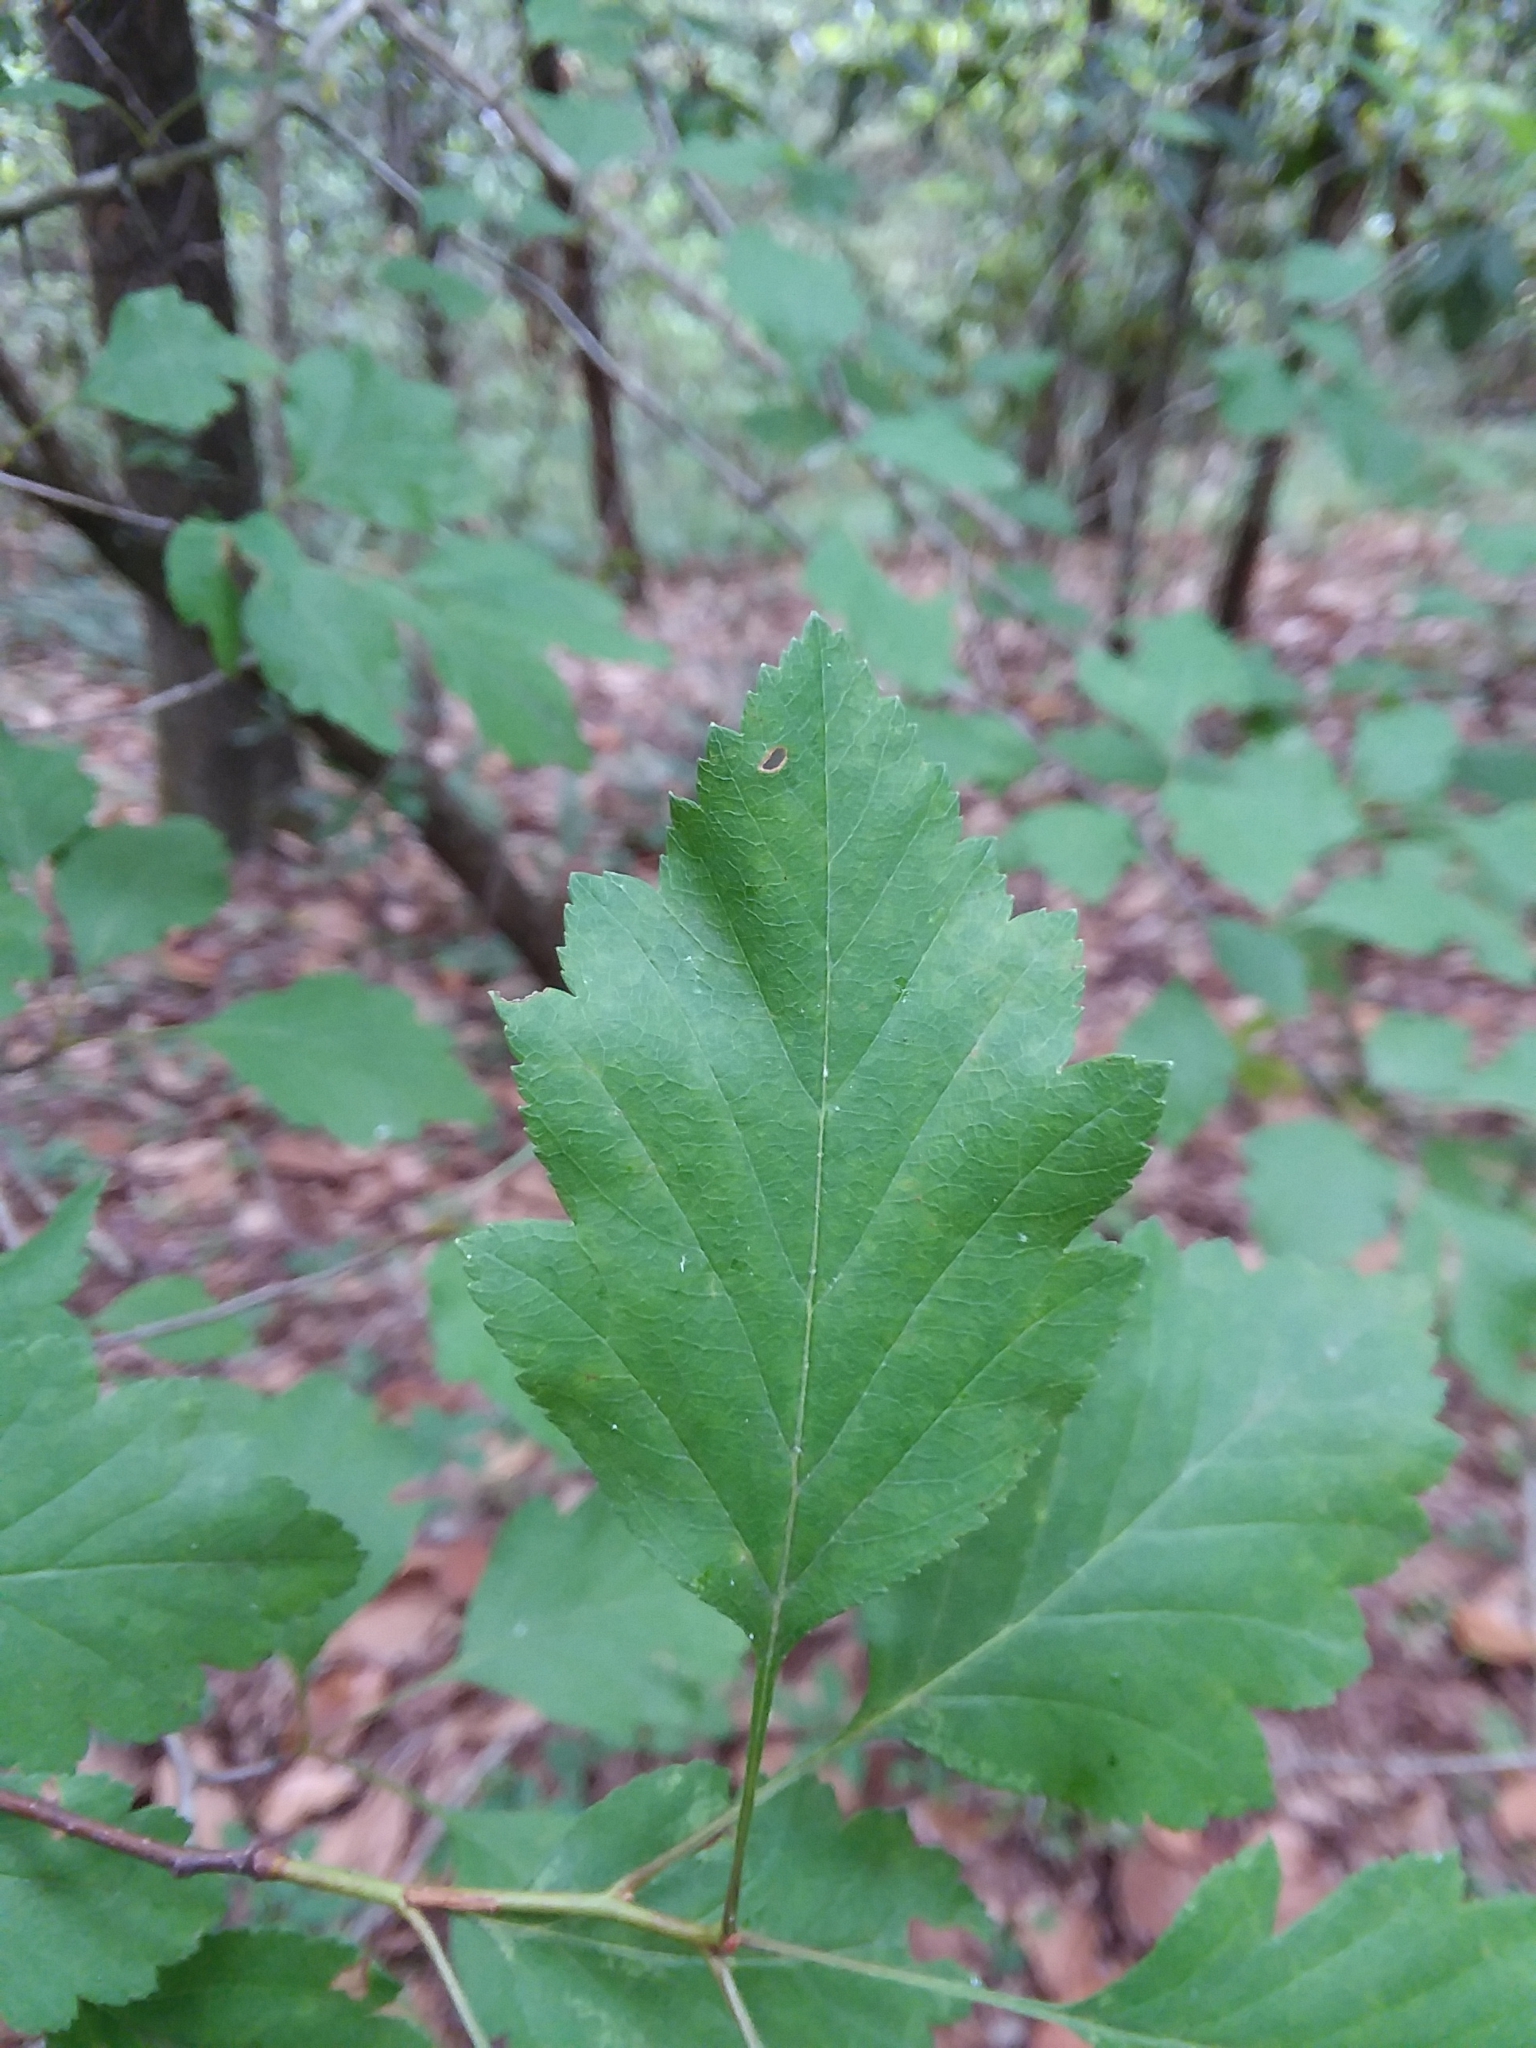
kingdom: Plantae
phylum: Tracheophyta
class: Magnoliopsida
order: Rosales
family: Rosaceae
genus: Crataegus
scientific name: Crataegus pulcherrima
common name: Beautiful hawthorn
